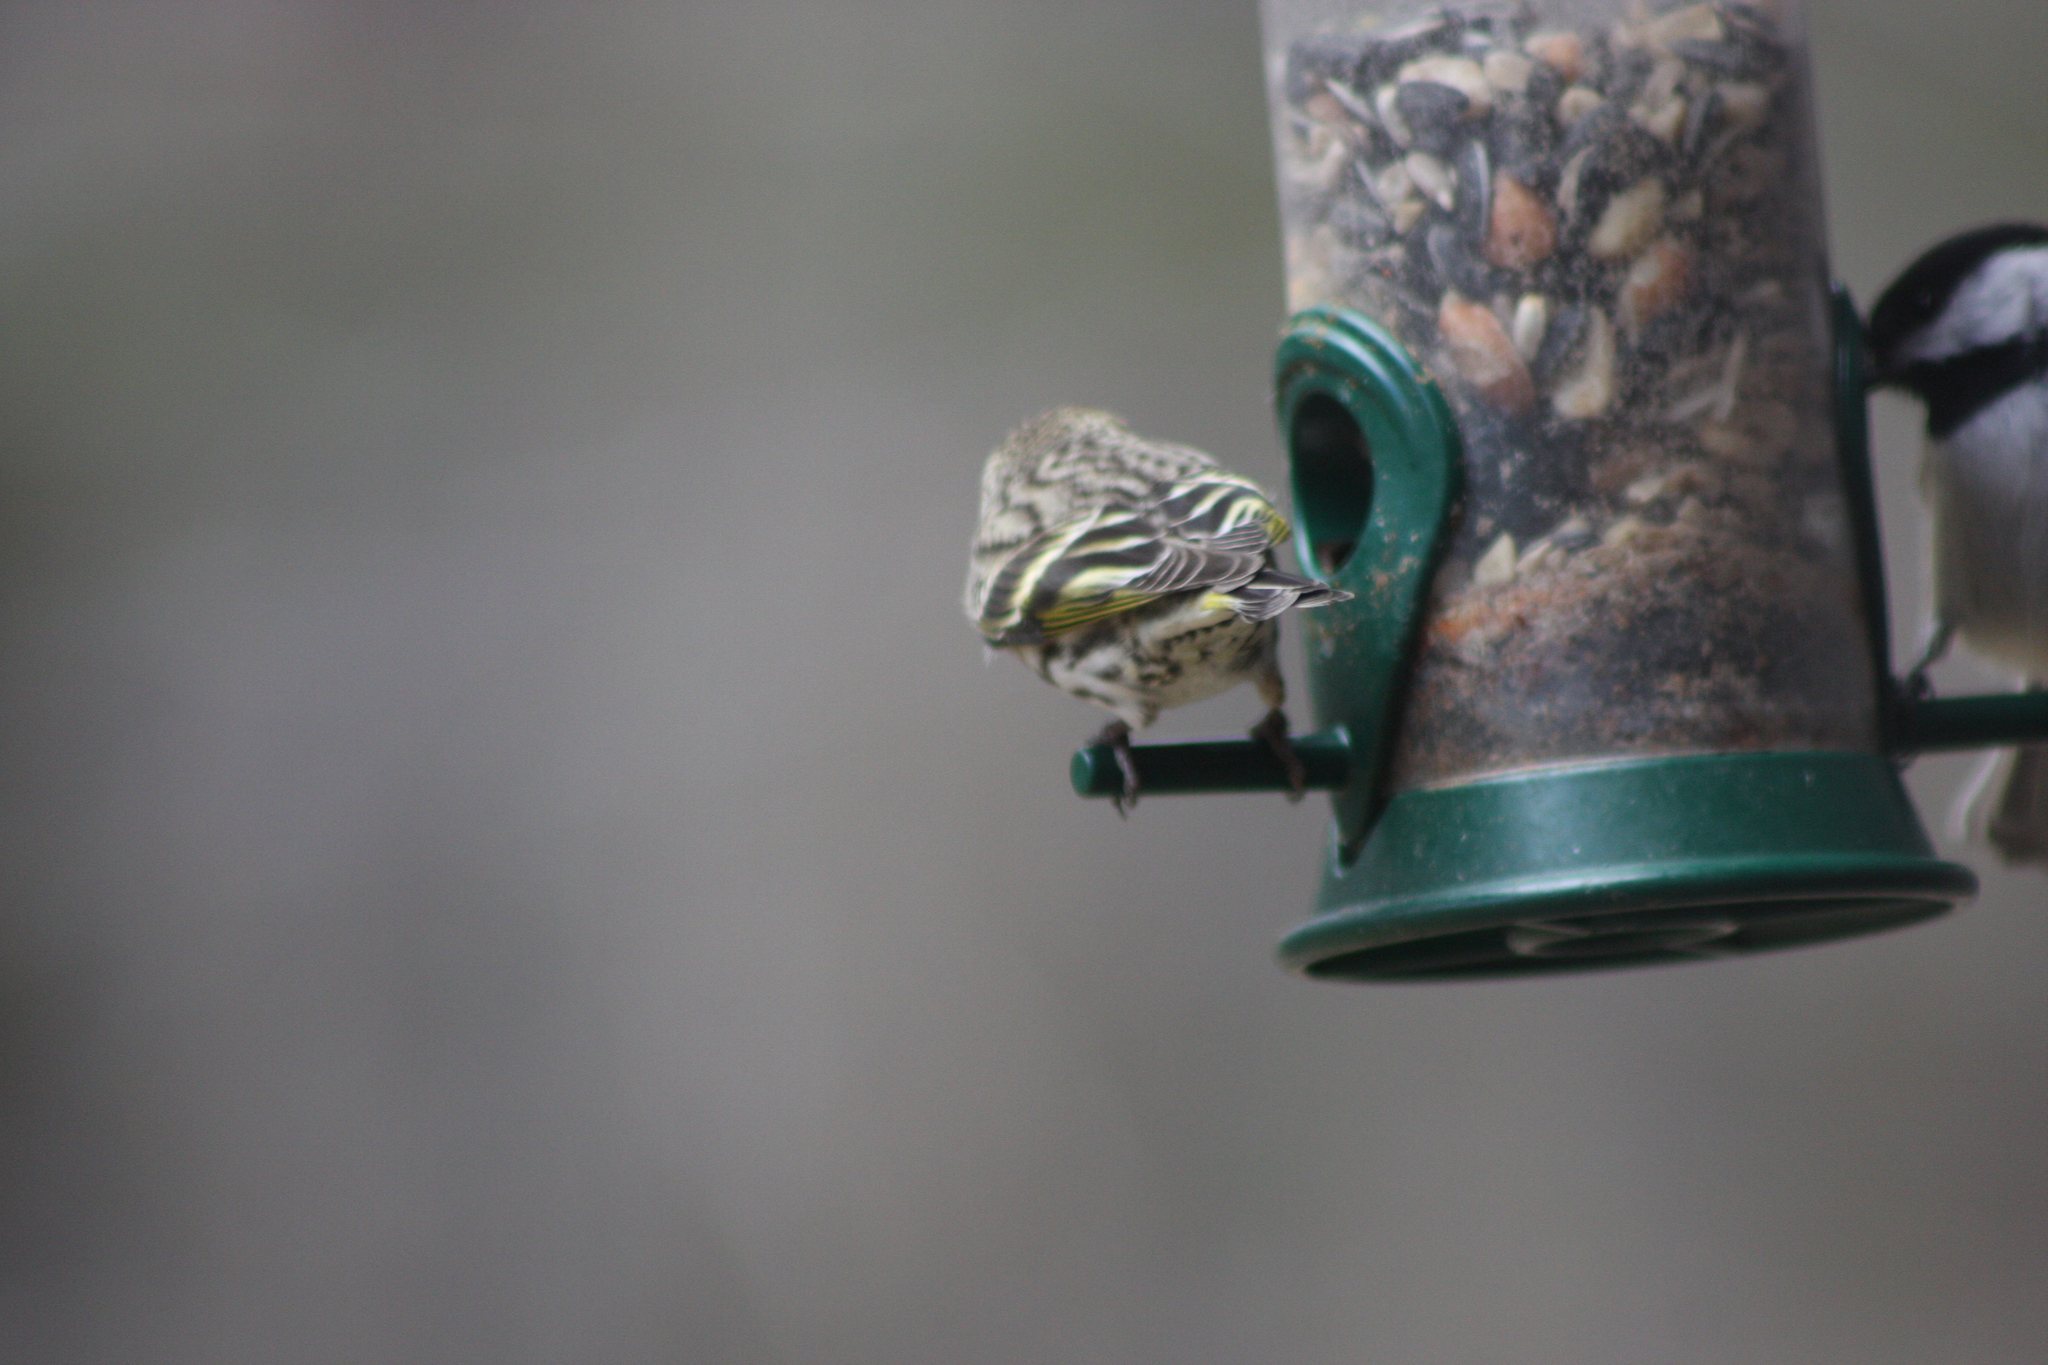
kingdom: Animalia
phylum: Chordata
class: Aves
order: Passeriformes
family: Fringillidae
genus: Spinus
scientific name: Spinus pinus
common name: Pine siskin
